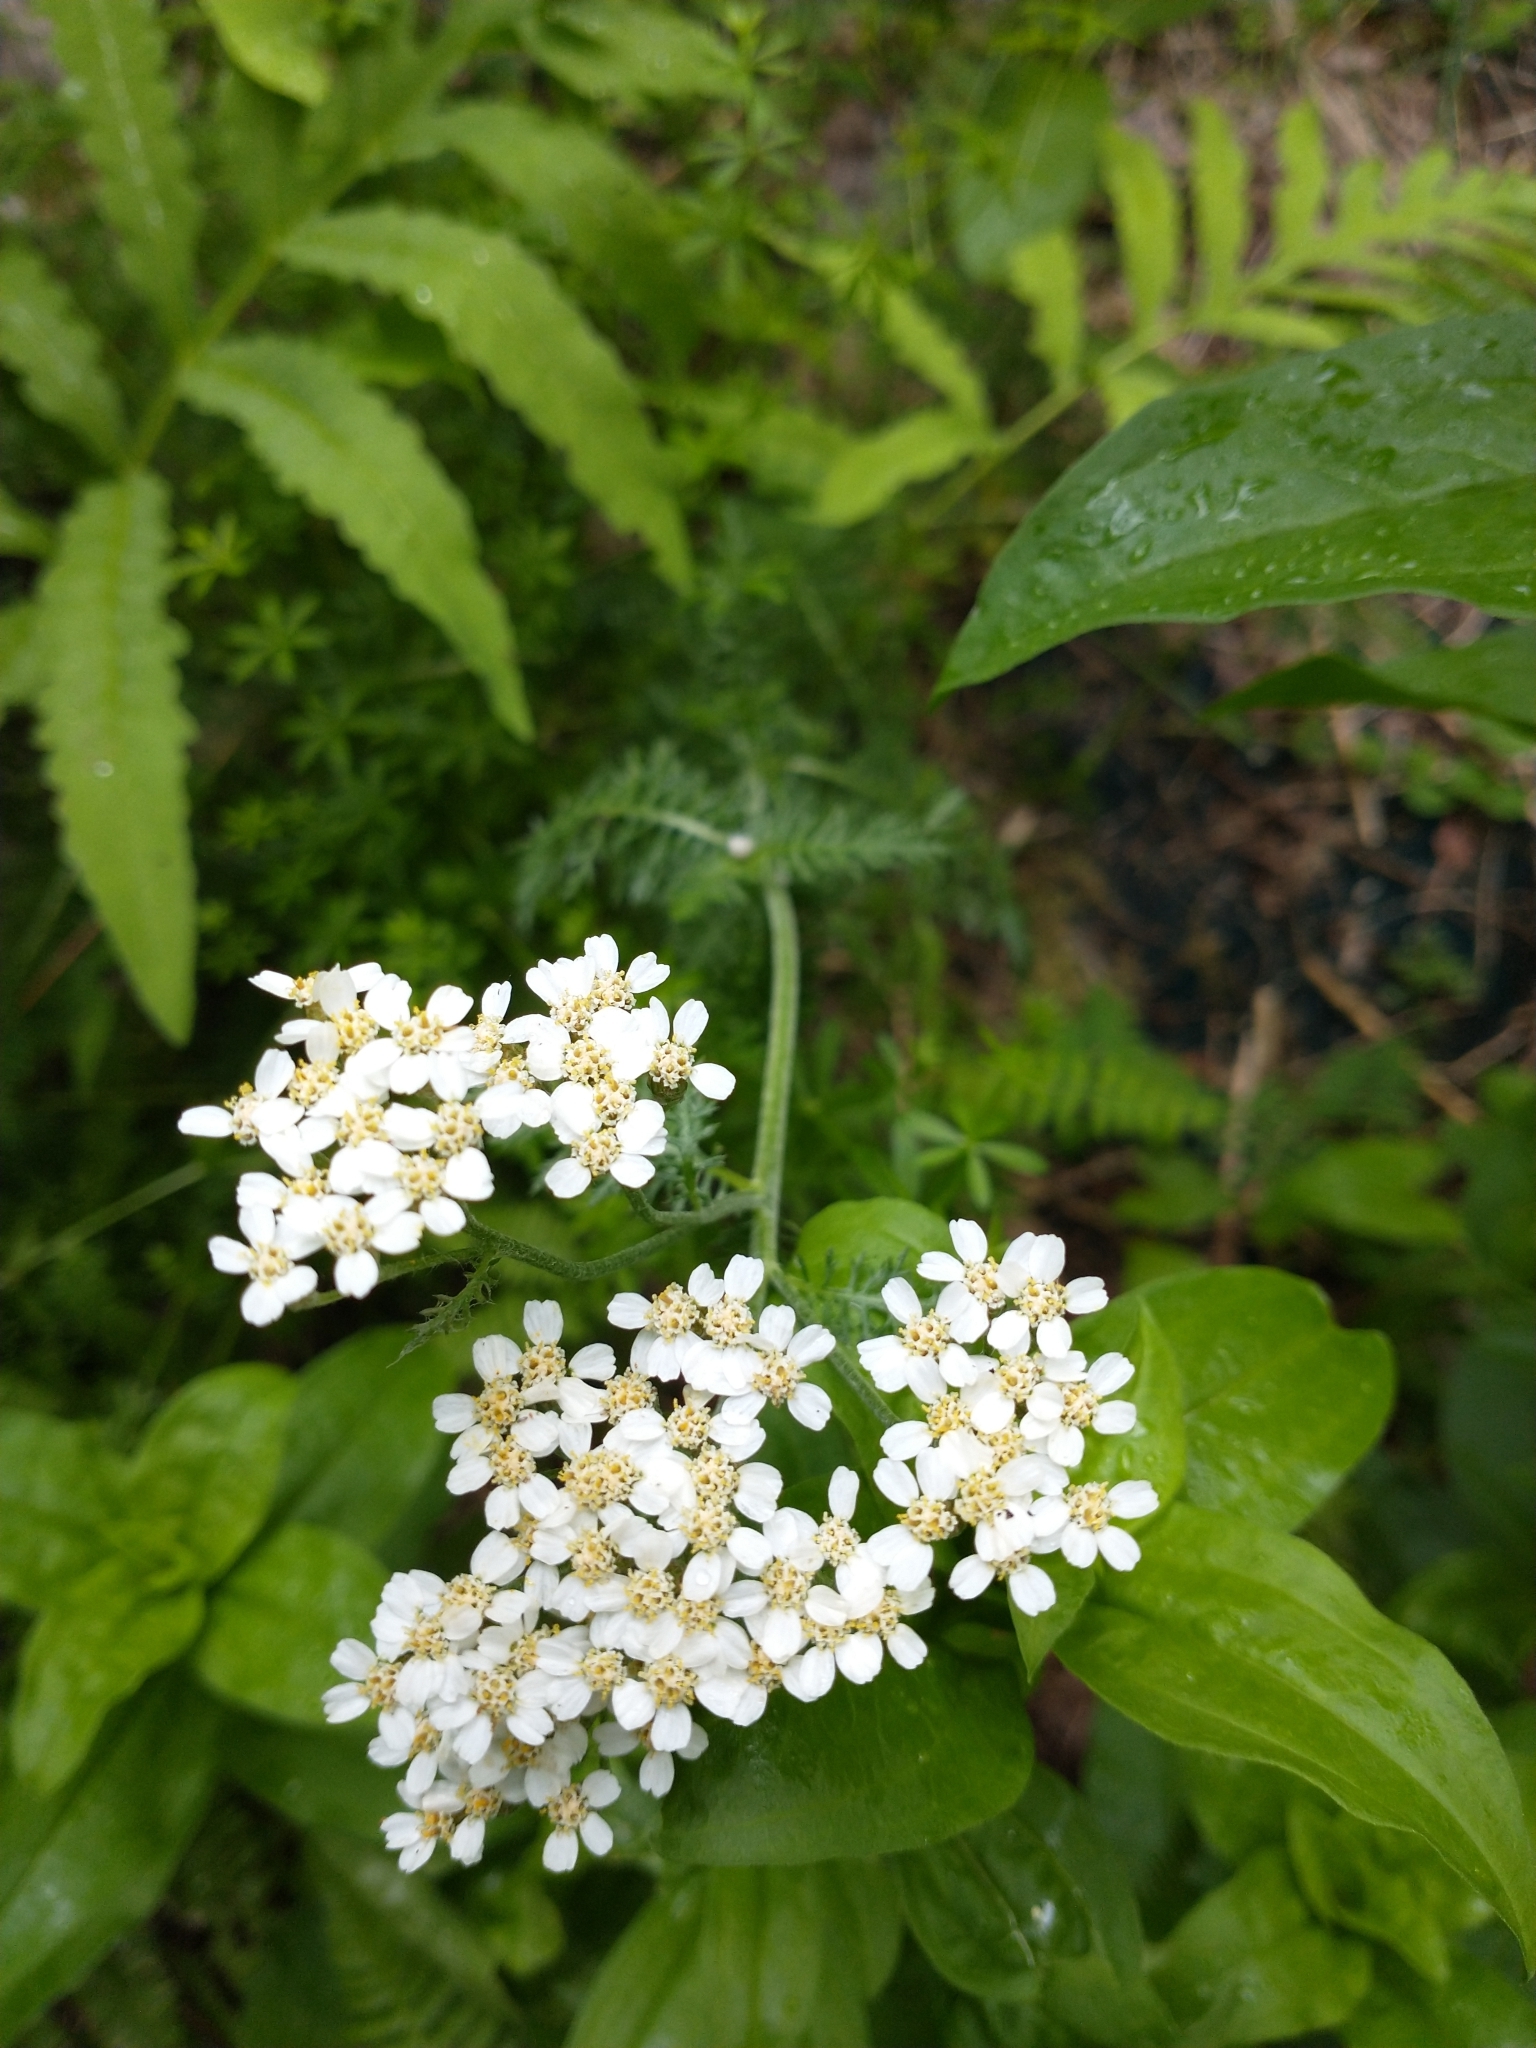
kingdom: Plantae
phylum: Tracheophyta
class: Magnoliopsida
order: Asterales
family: Asteraceae
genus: Achillea
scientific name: Achillea millefolium
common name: Yarrow
